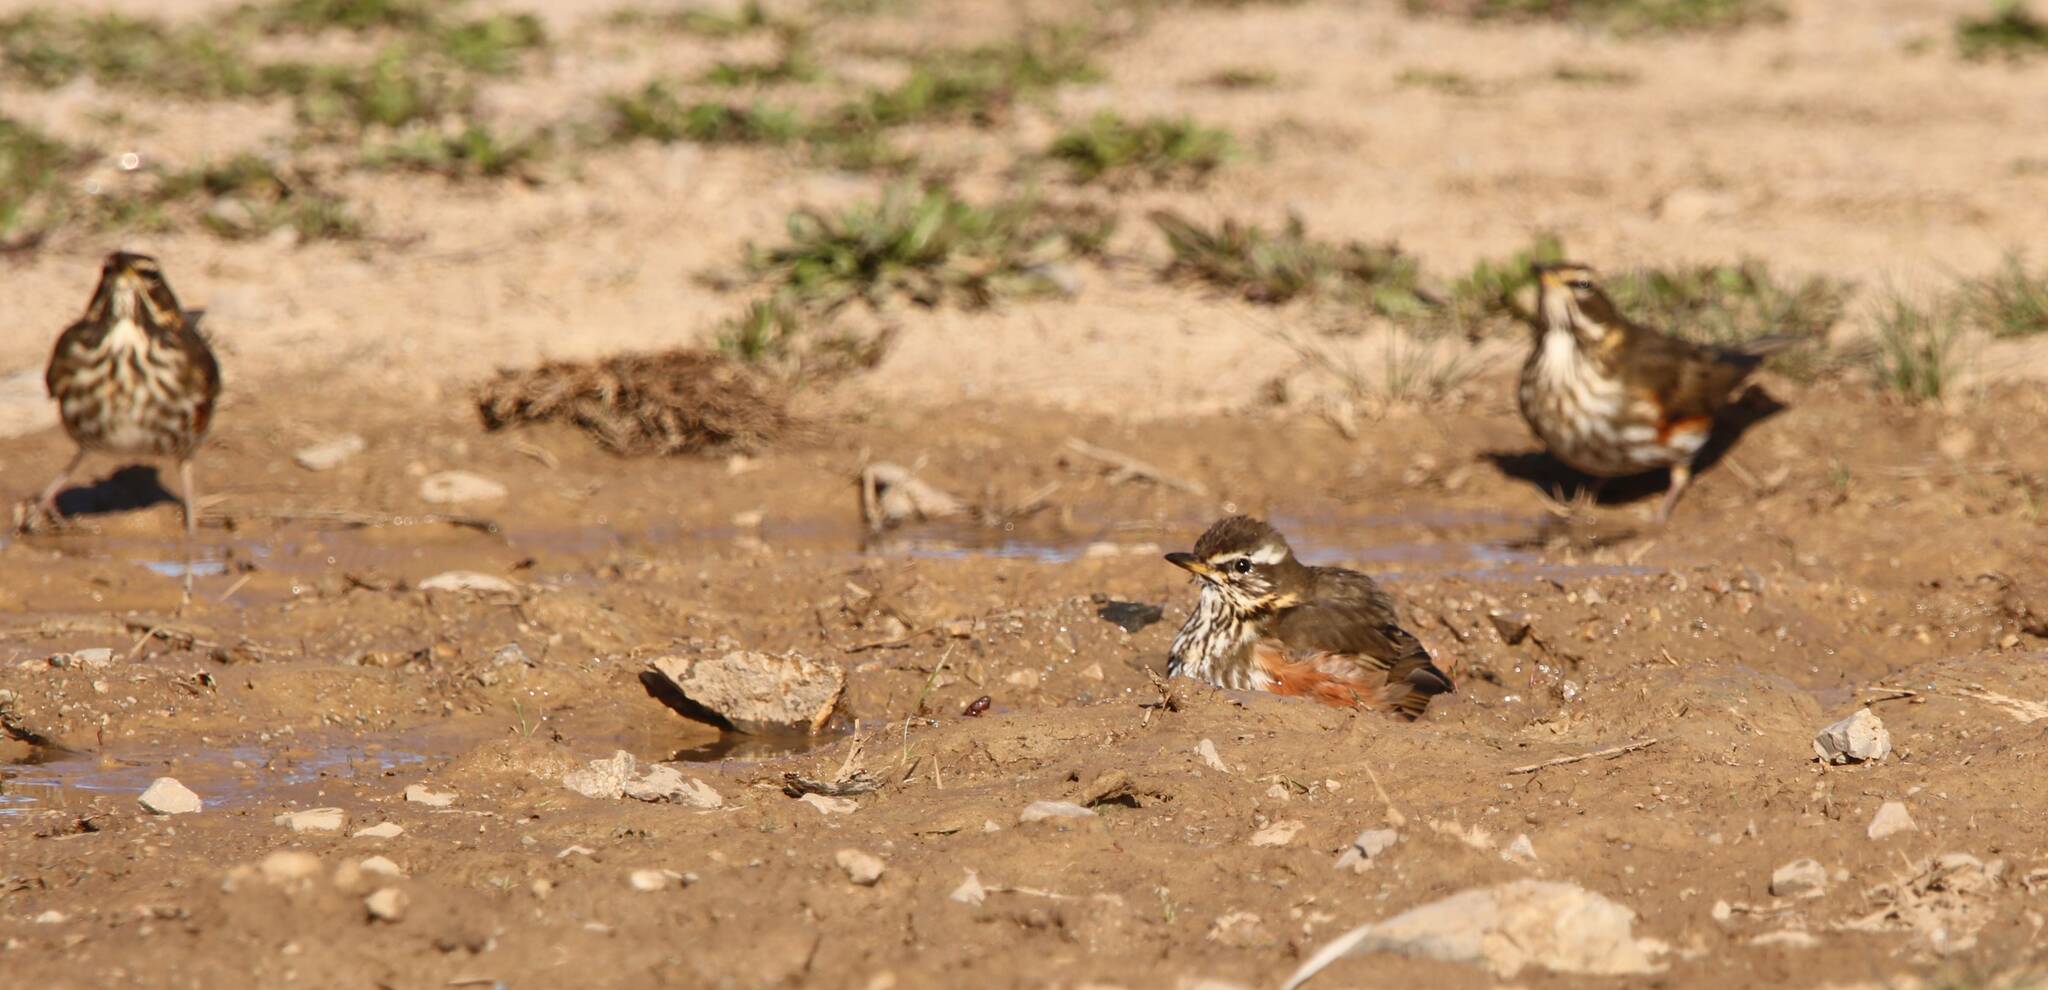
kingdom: Animalia
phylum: Chordata
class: Aves
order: Passeriformes
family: Turdidae
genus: Turdus
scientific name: Turdus iliacus
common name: Redwing
